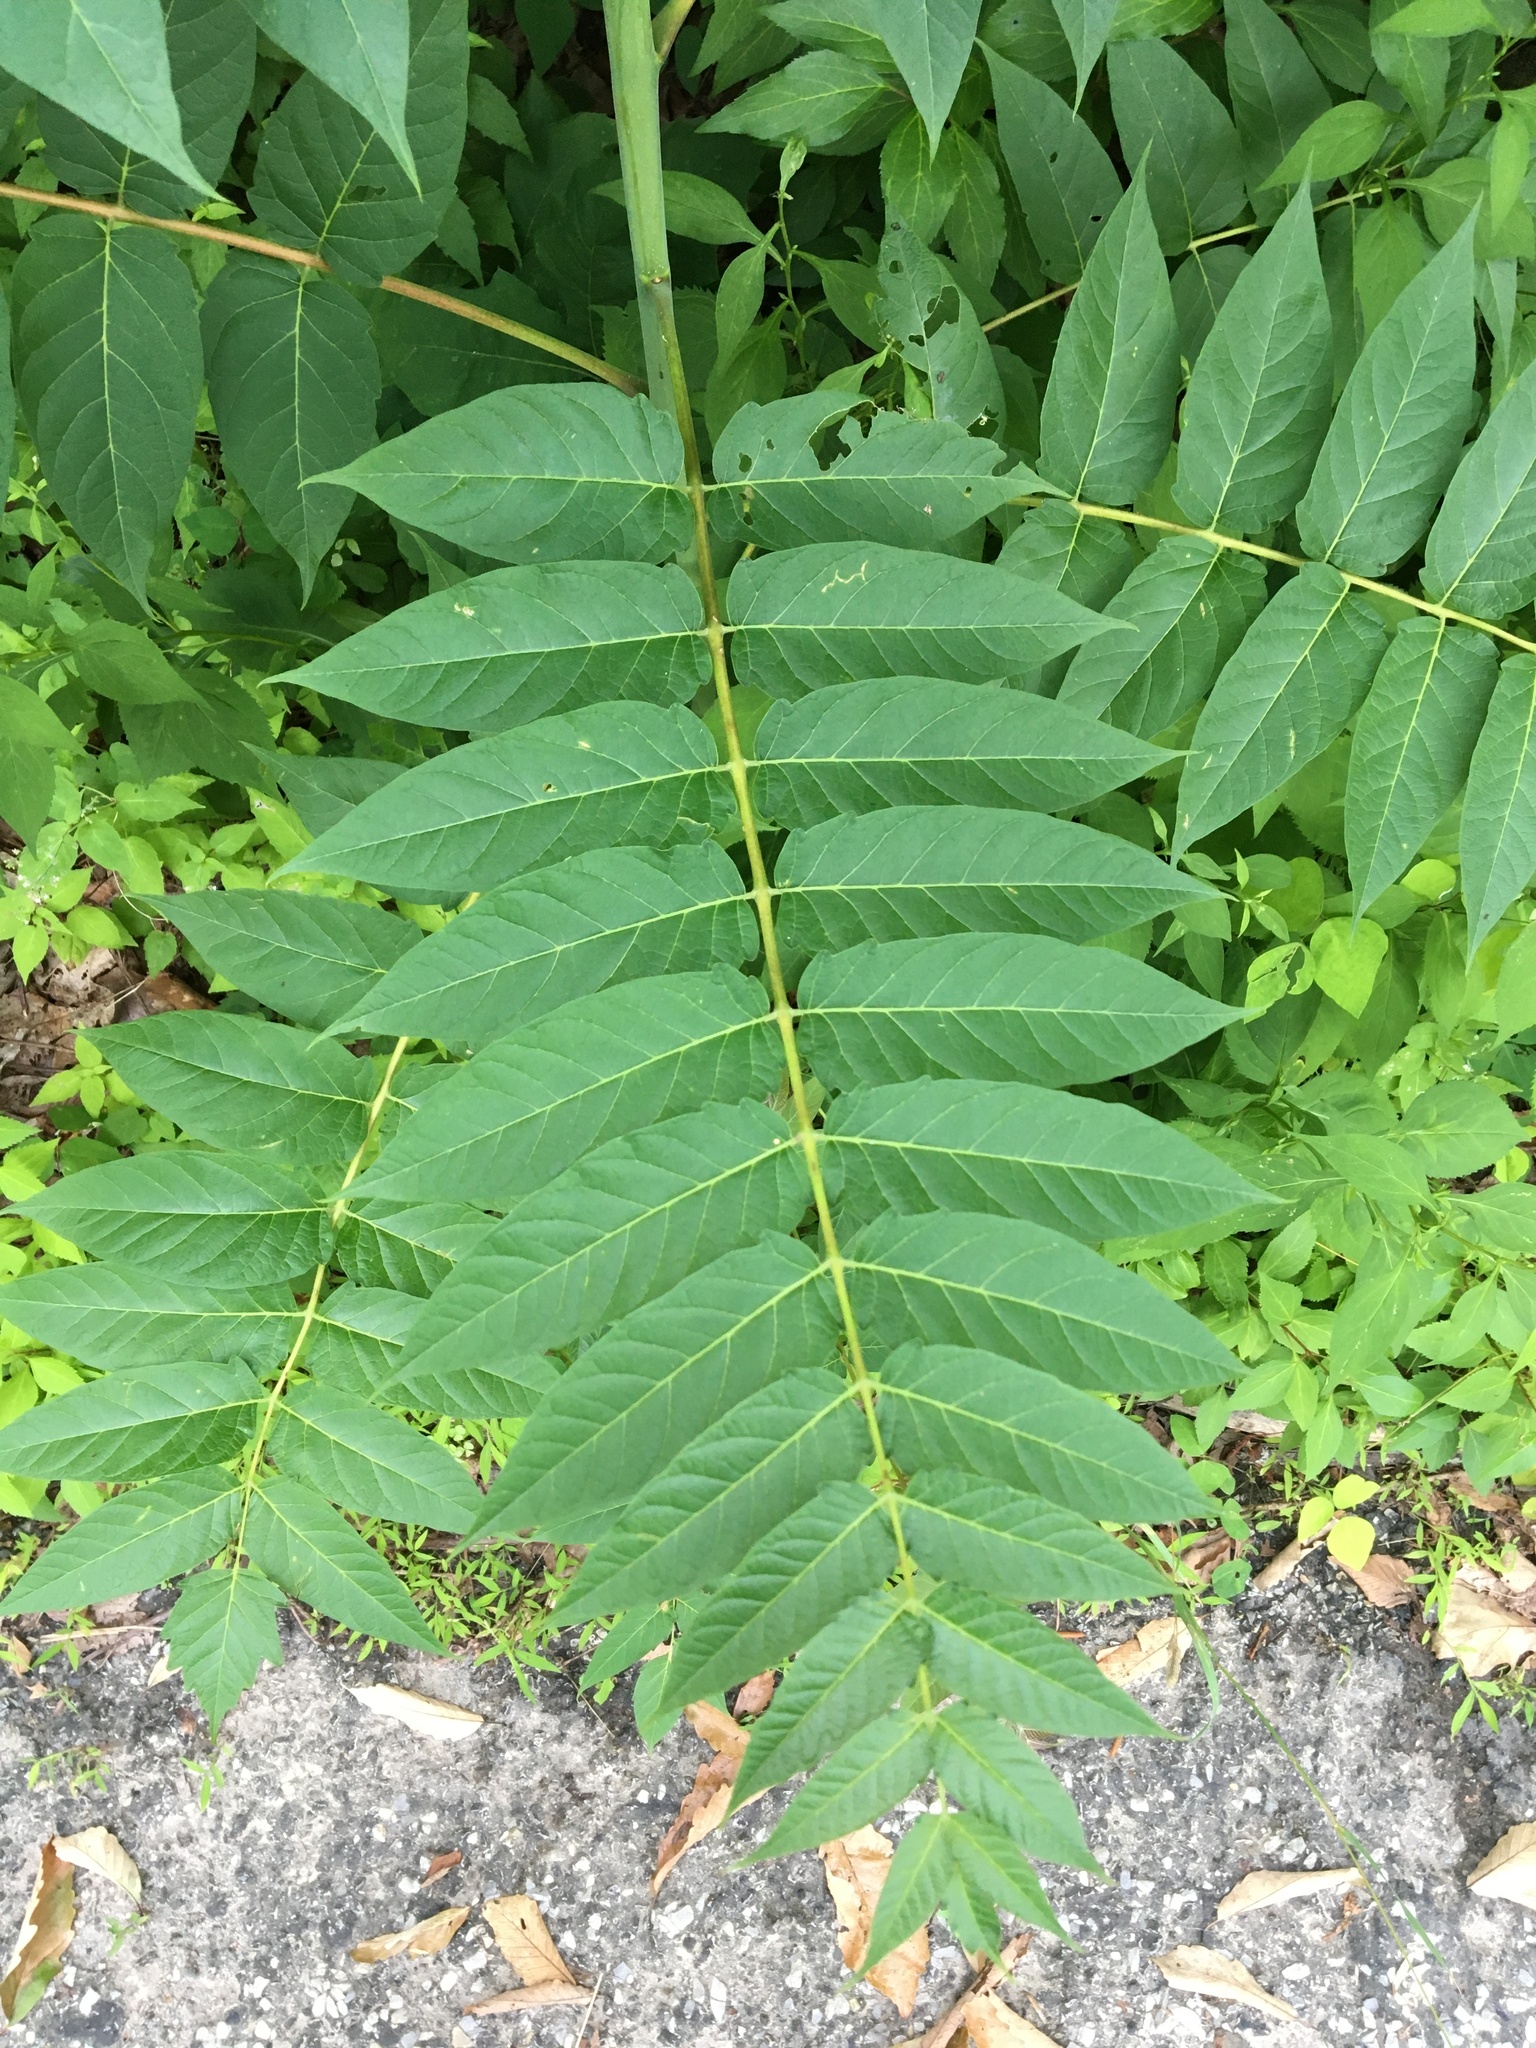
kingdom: Plantae
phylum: Tracheophyta
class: Magnoliopsida
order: Sapindales
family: Simaroubaceae
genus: Ailanthus
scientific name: Ailanthus altissima
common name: Tree-of-heaven
